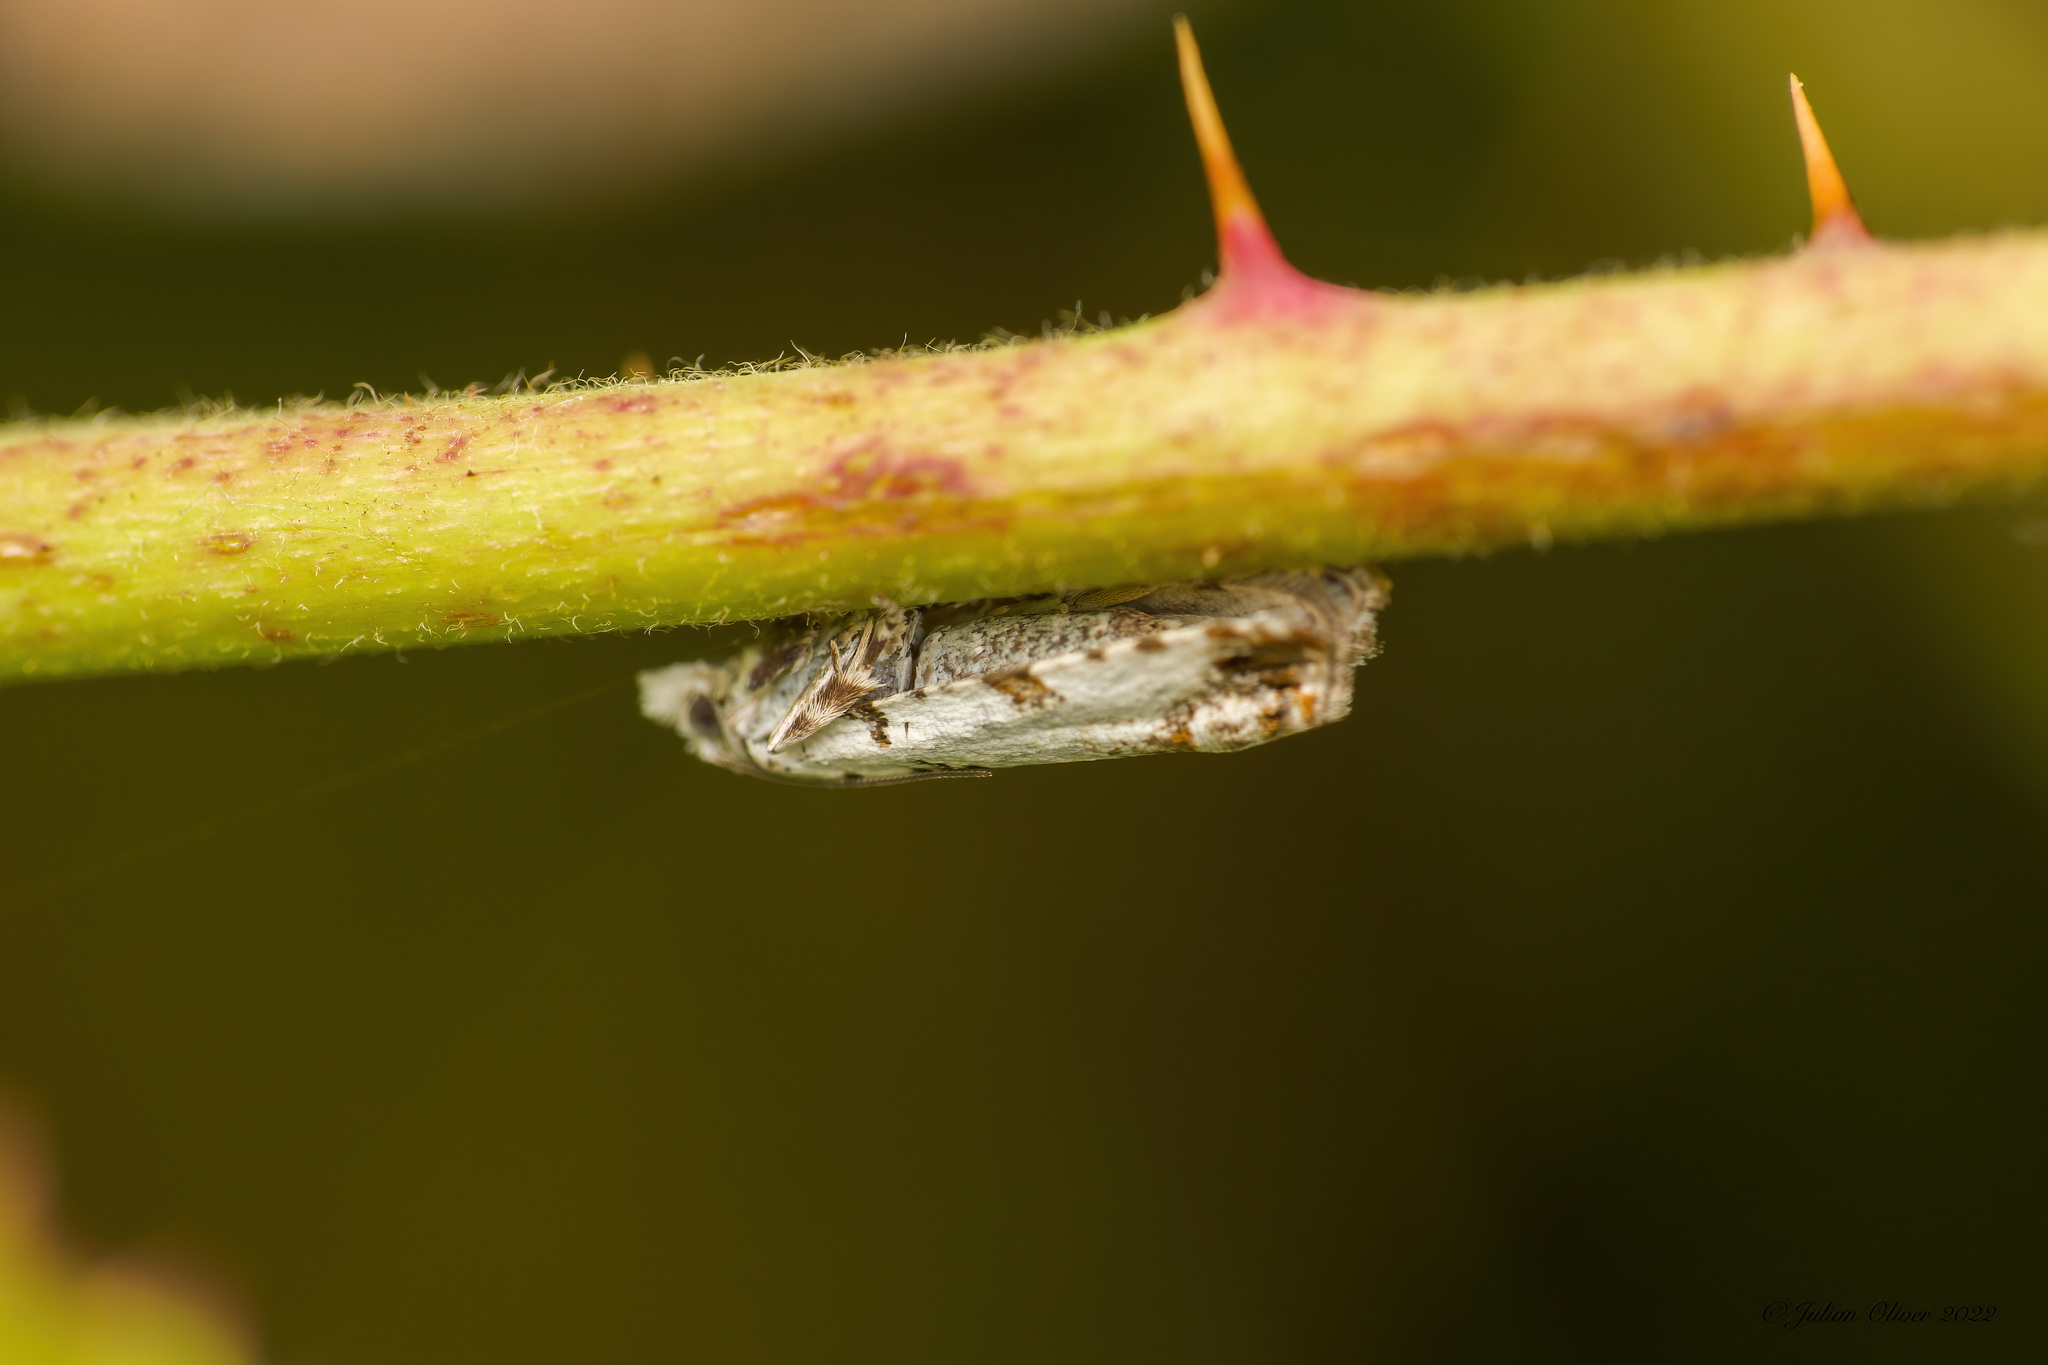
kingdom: Animalia
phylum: Arthropoda
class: Insecta
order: Lepidoptera
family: Tortricidae
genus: Eucosma
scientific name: Eucosma campoliliana
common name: Marbled bell
